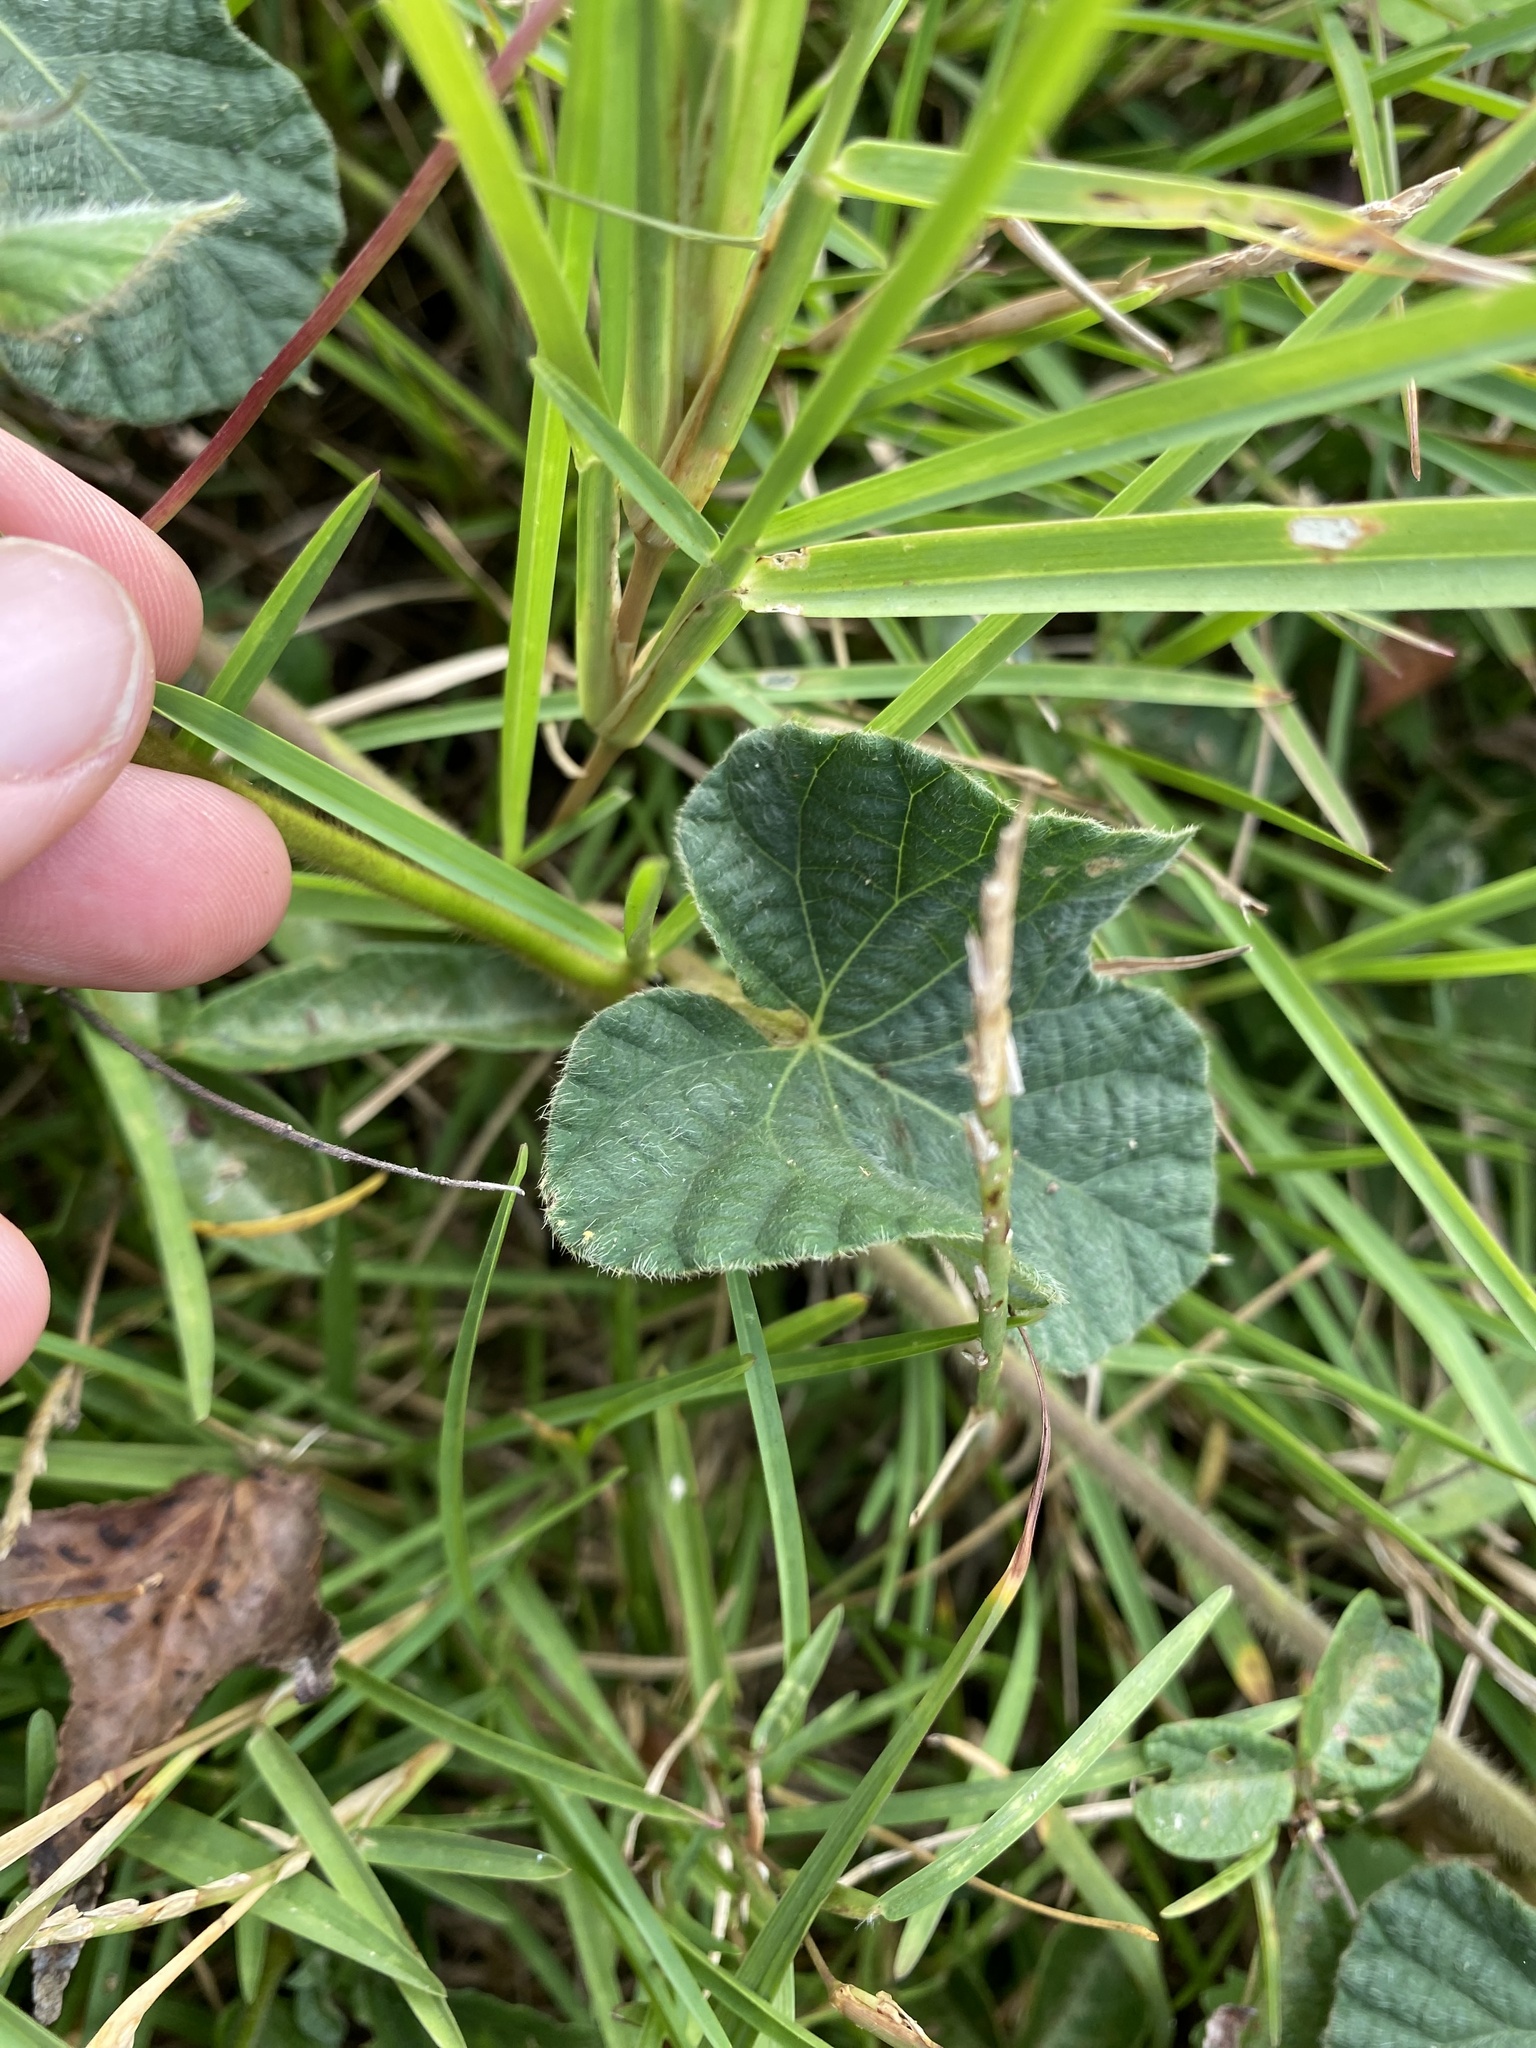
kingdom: Plantae
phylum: Tracheophyta
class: Magnoliopsida
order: Solanales
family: Convolvulaceae
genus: Ipomoea
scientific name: Ipomoea wightii
